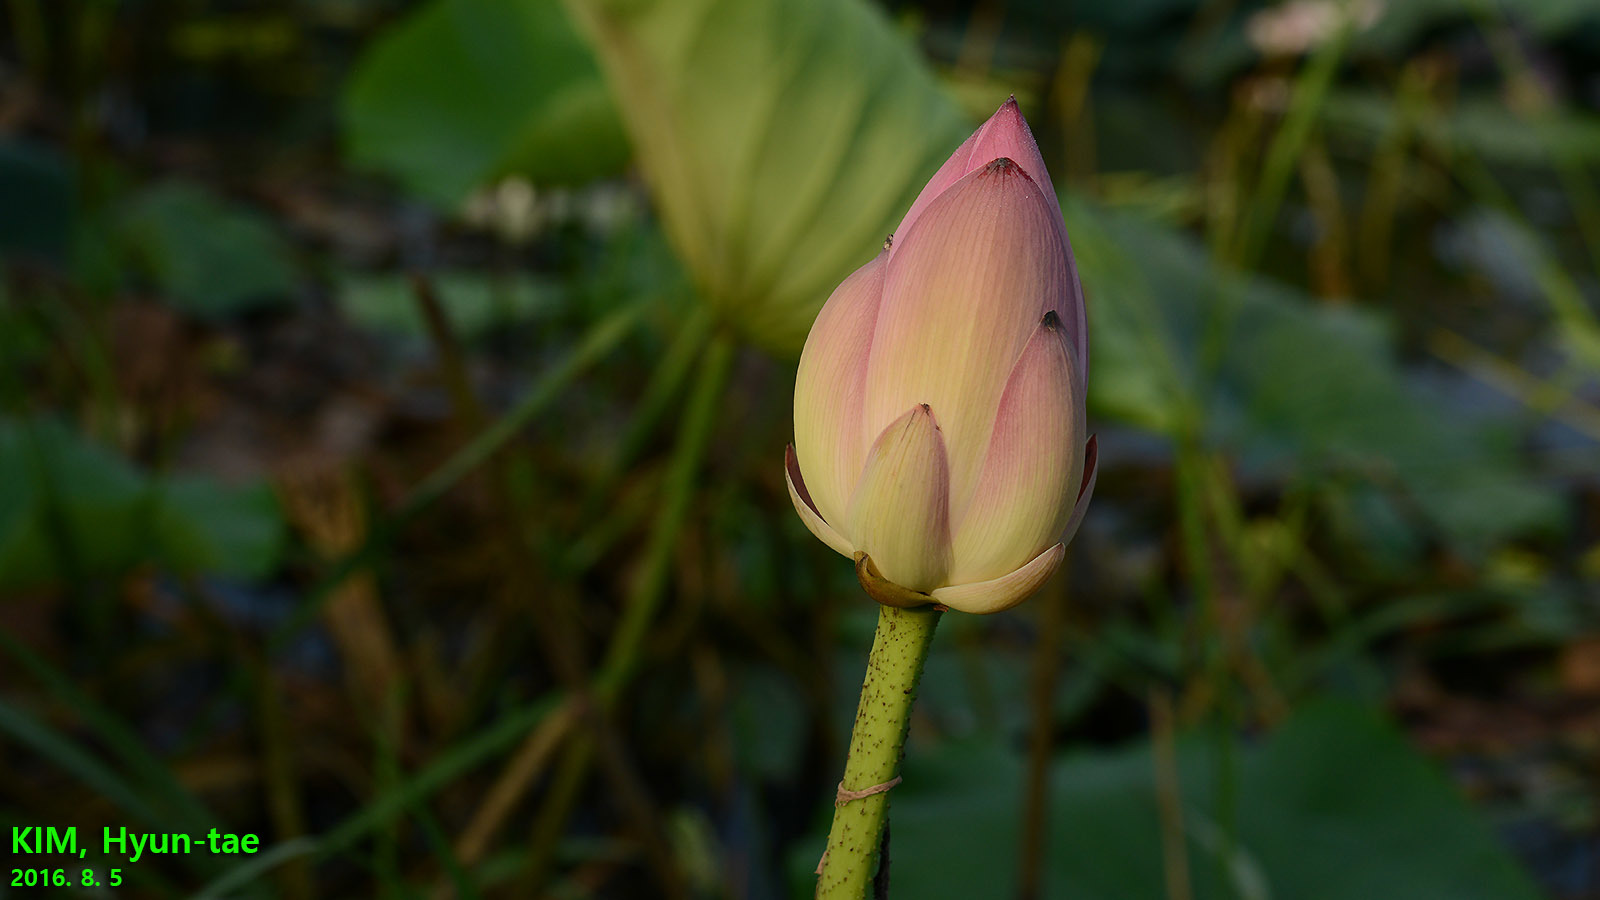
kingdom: Plantae
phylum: Tracheophyta
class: Magnoliopsida
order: Proteales
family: Nelumbonaceae
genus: Nelumbo
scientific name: Nelumbo nucifera
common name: Sacred lotus
